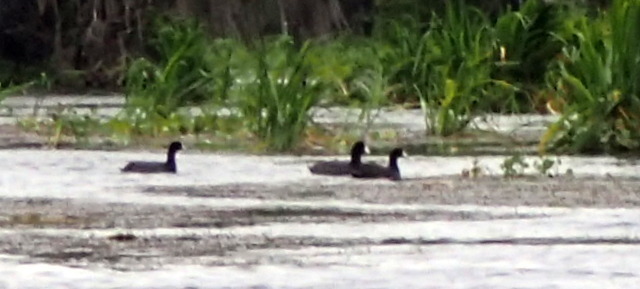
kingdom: Animalia
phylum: Chordata
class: Aves
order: Gruiformes
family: Rallidae
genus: Fulica
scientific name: Fulica americana
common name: American coot
